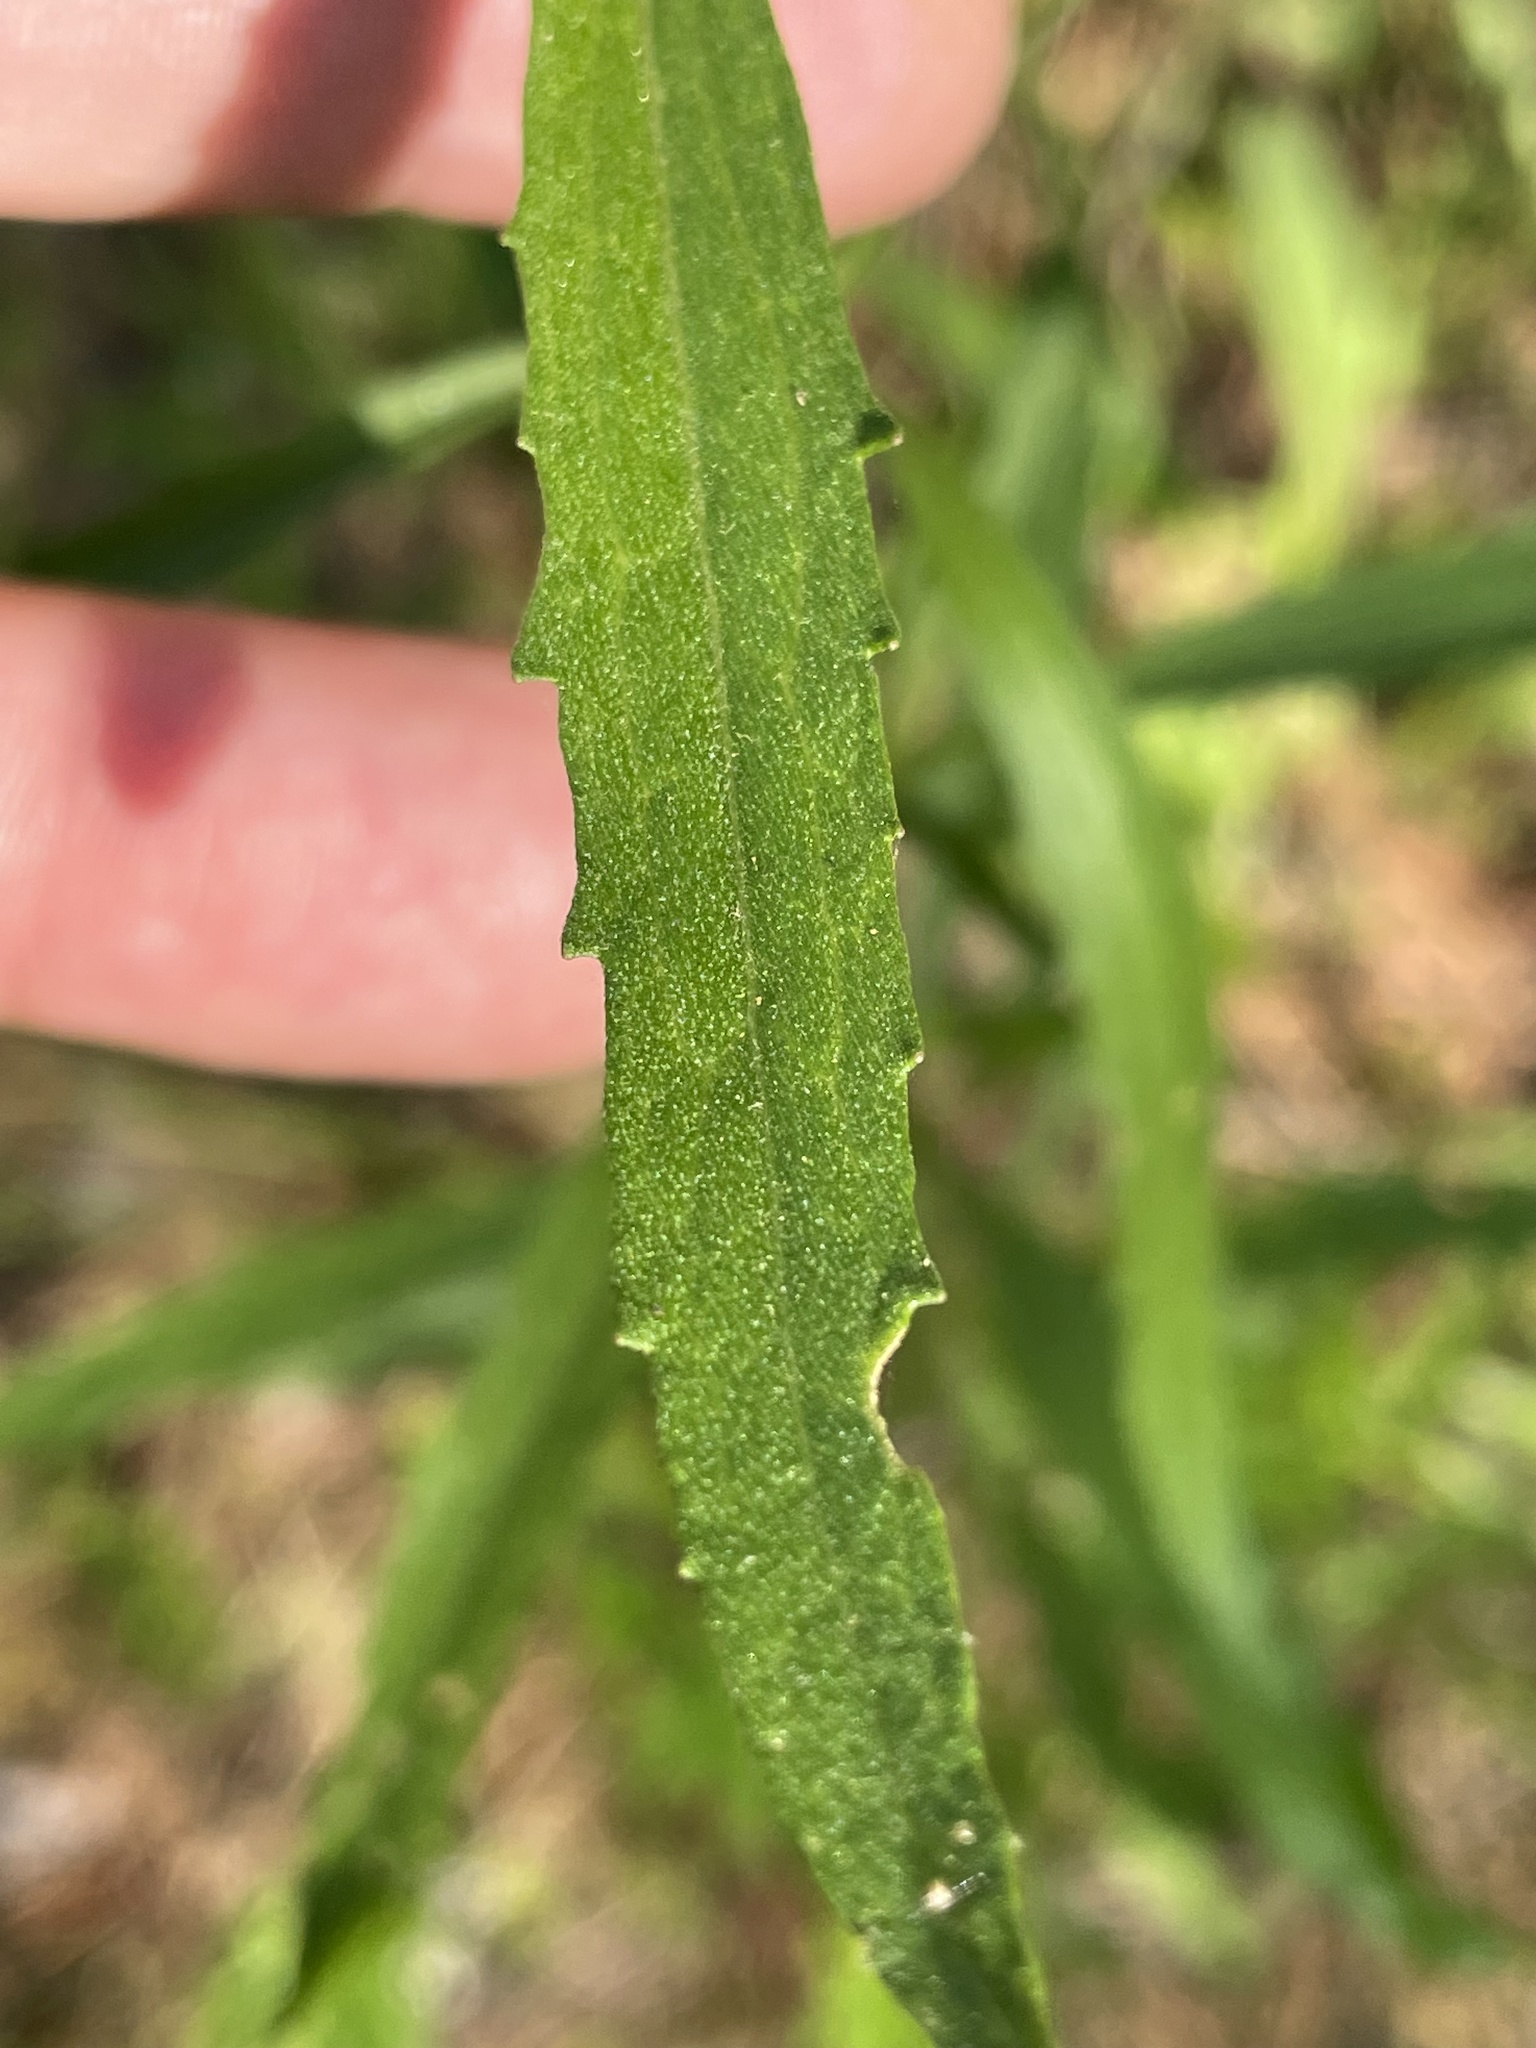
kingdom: Plantae
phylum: Tracheophyta
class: Magnoliopsida
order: Asterales
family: Asteraceae
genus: Eupatorium
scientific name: Eupatorium torreyanum
